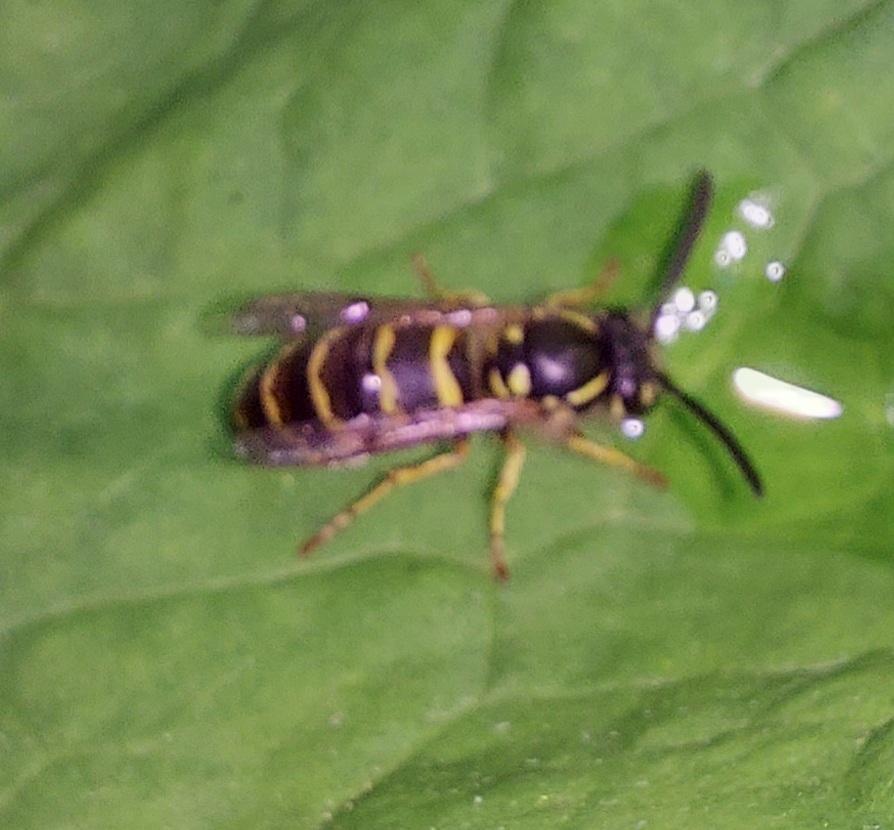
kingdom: Animalia
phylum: Arthropoda
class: Insecta
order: Hymenoptera
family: Vespidae
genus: Vespula
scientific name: Vespula vulgaris
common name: Common wasp
